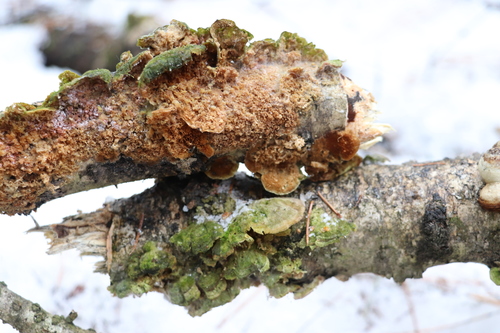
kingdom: Fungi
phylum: Basidiomycota
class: Agaricomycetes
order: Hymenochaetales
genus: Trichaptum
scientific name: Trichaptum biforme
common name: Violet-toothed polypore
